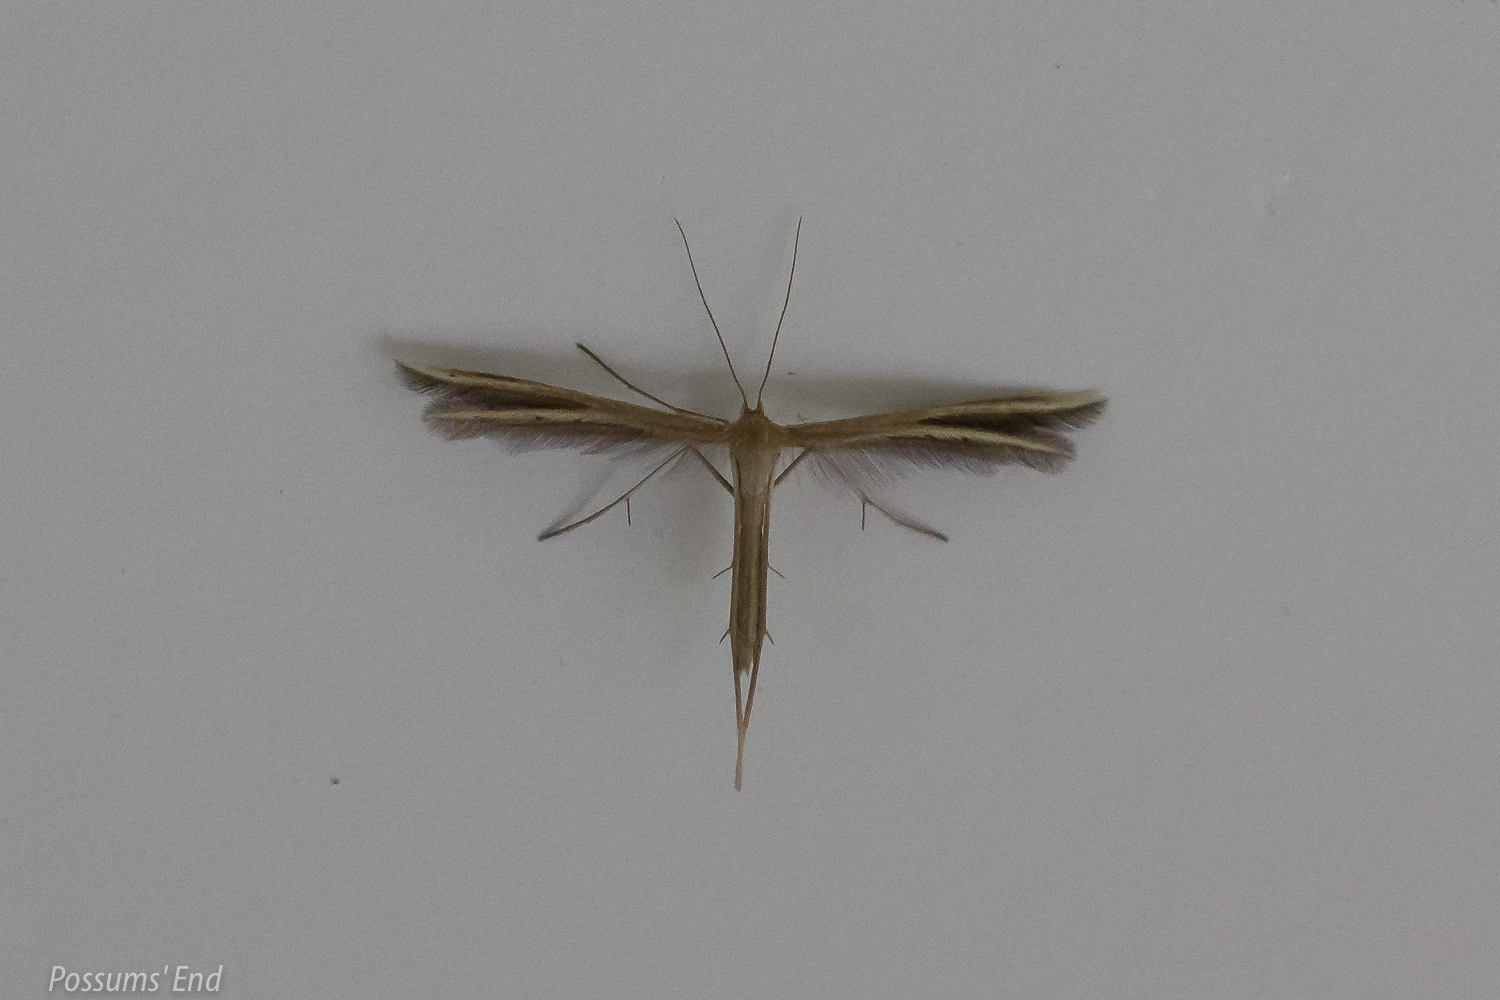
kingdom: Animalia
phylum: Arthropoda
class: Insecta
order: Lepidoptera
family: Pterophoridae
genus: Pterophorus
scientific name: Pterophorus innotatalis
